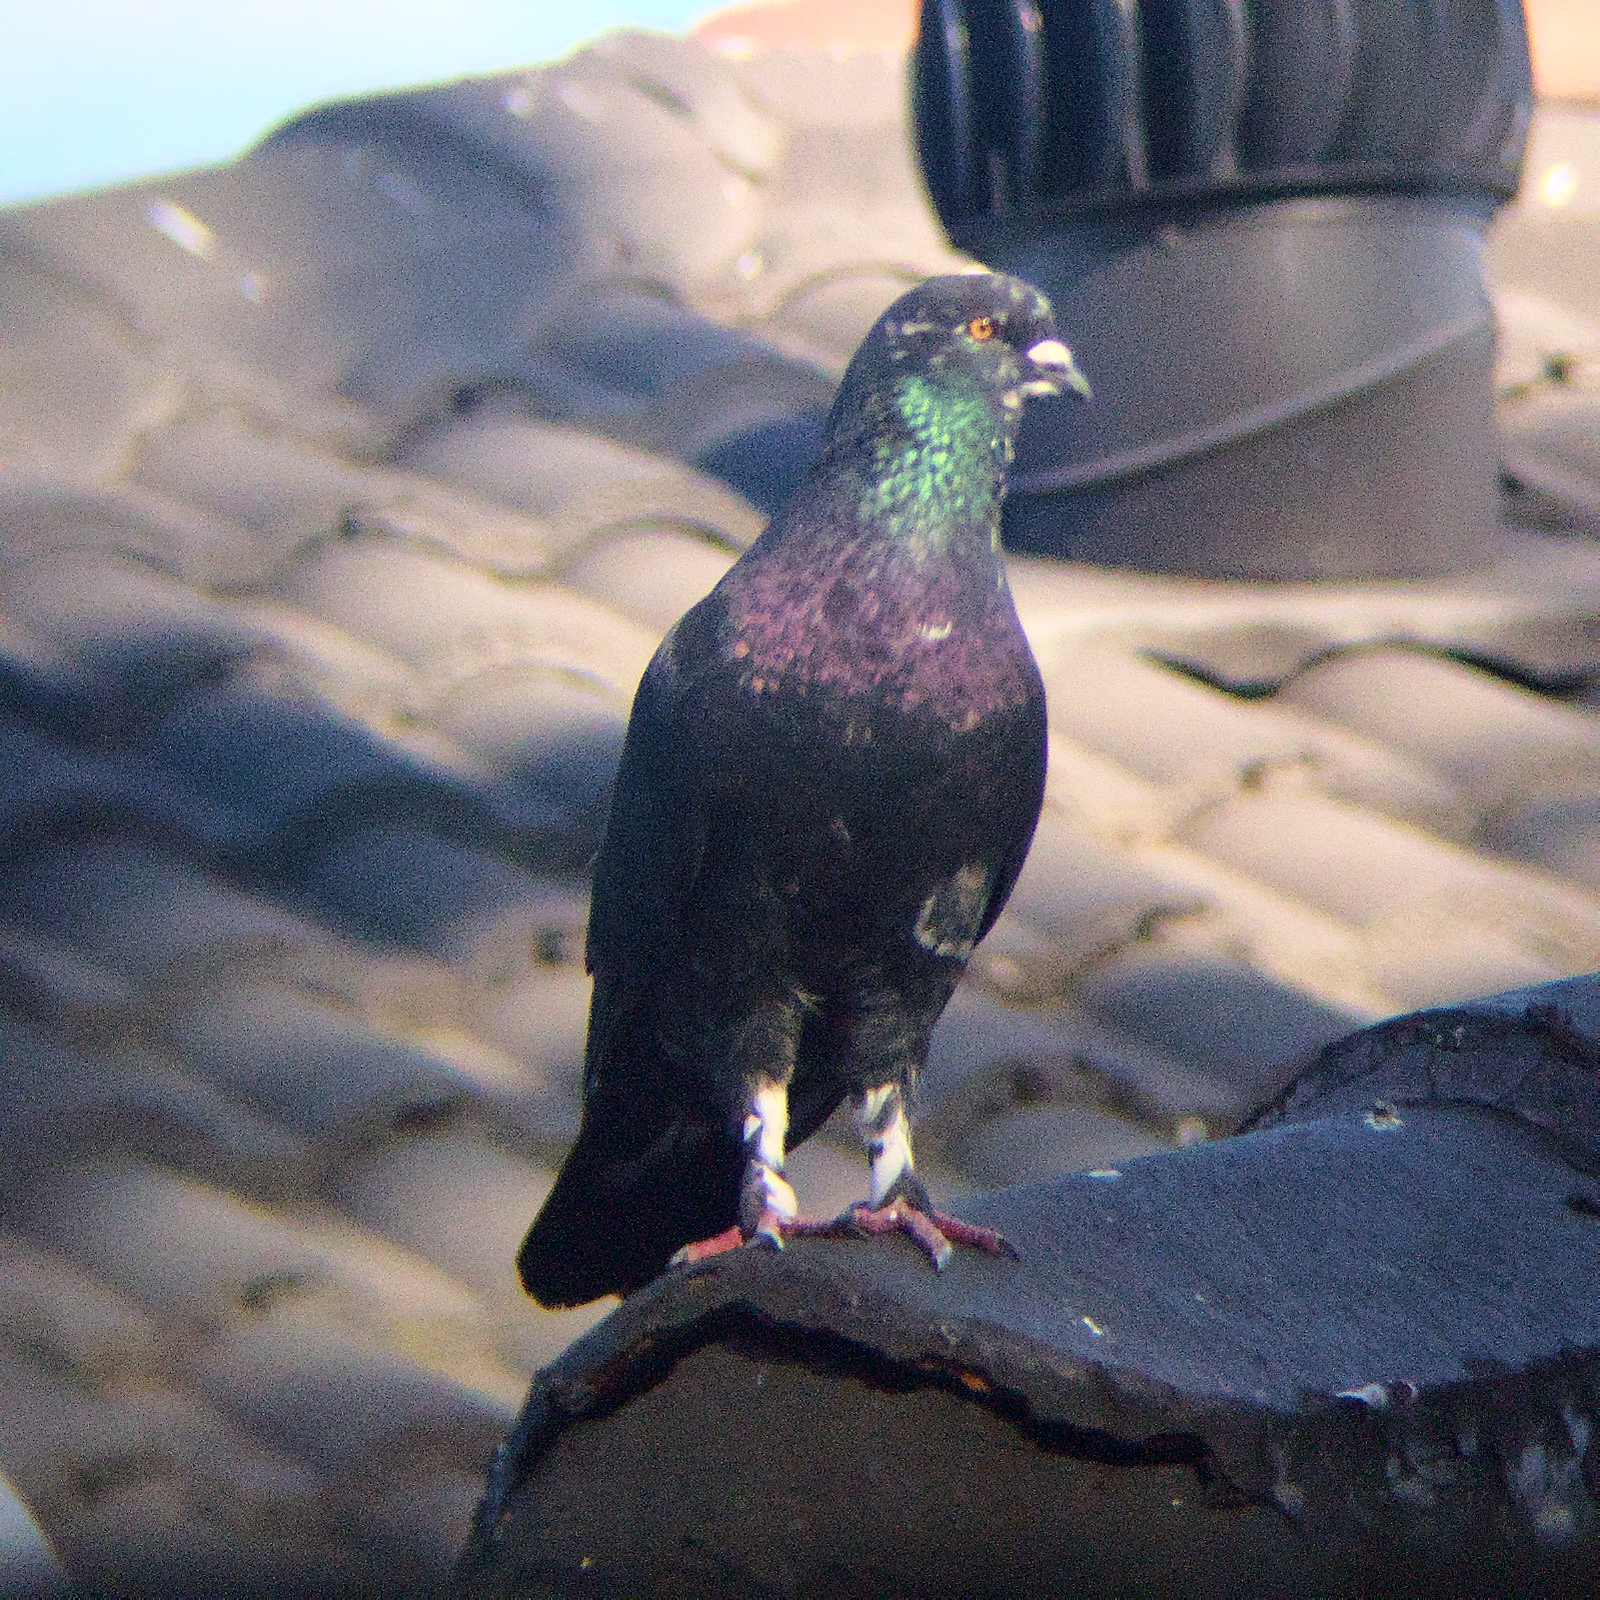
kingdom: Animalia
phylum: Chordata
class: Aves
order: Columbiformes
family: Columbidae
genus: Columba
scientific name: Columba livia
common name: Rock pigeon
